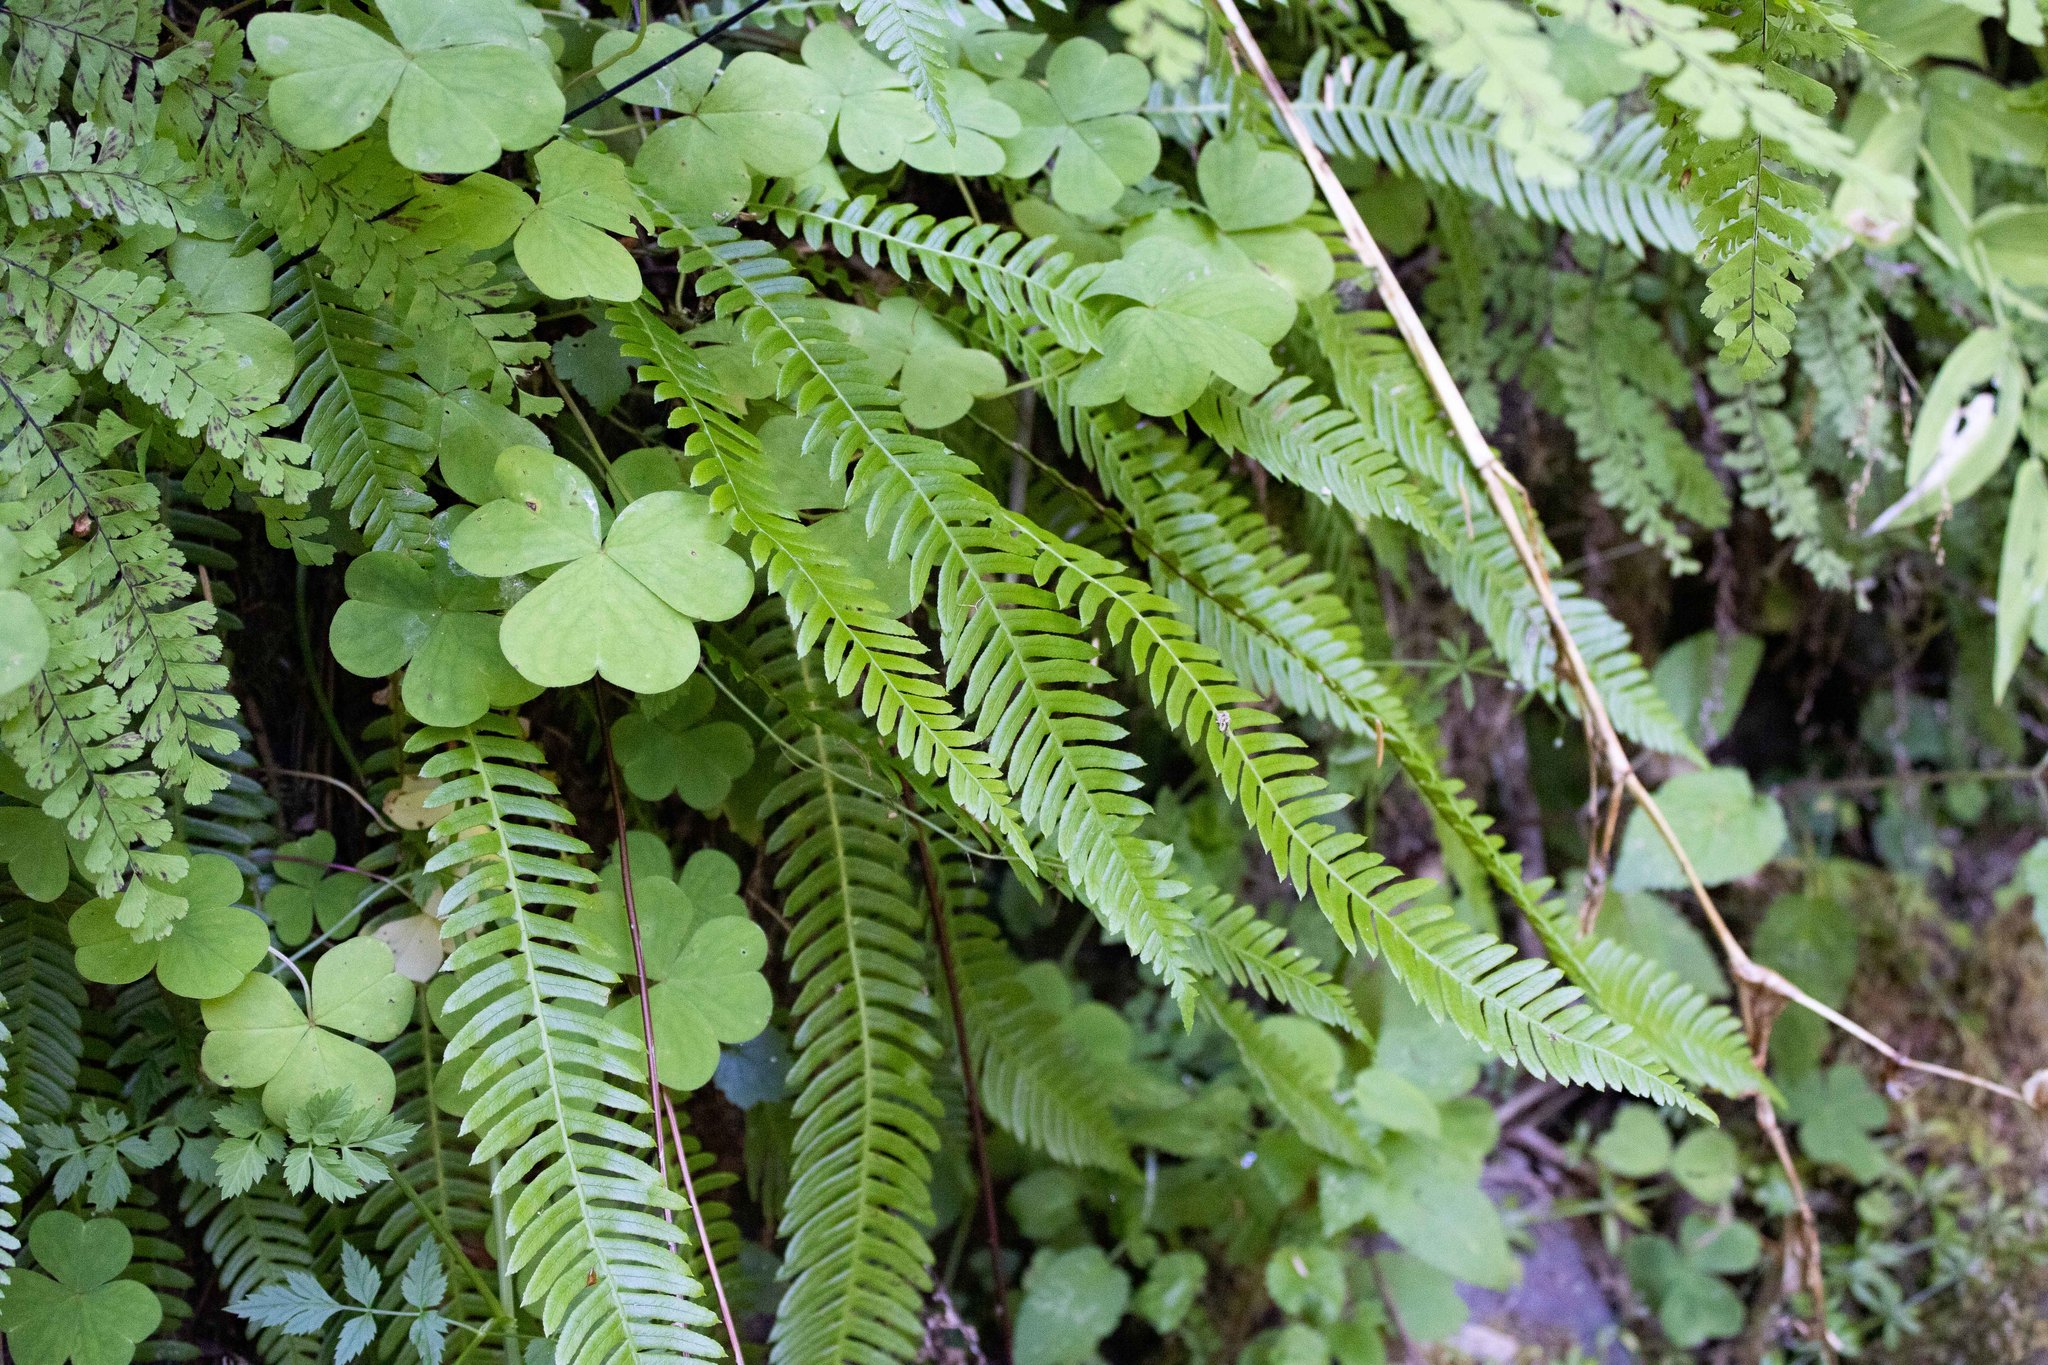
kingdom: Plantae
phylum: Tracheophyta
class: Polypodiopsida
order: Polypodiales
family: Blechnaceae
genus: Struthiopteris
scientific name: Struthiopteris spicant
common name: Deer fern
